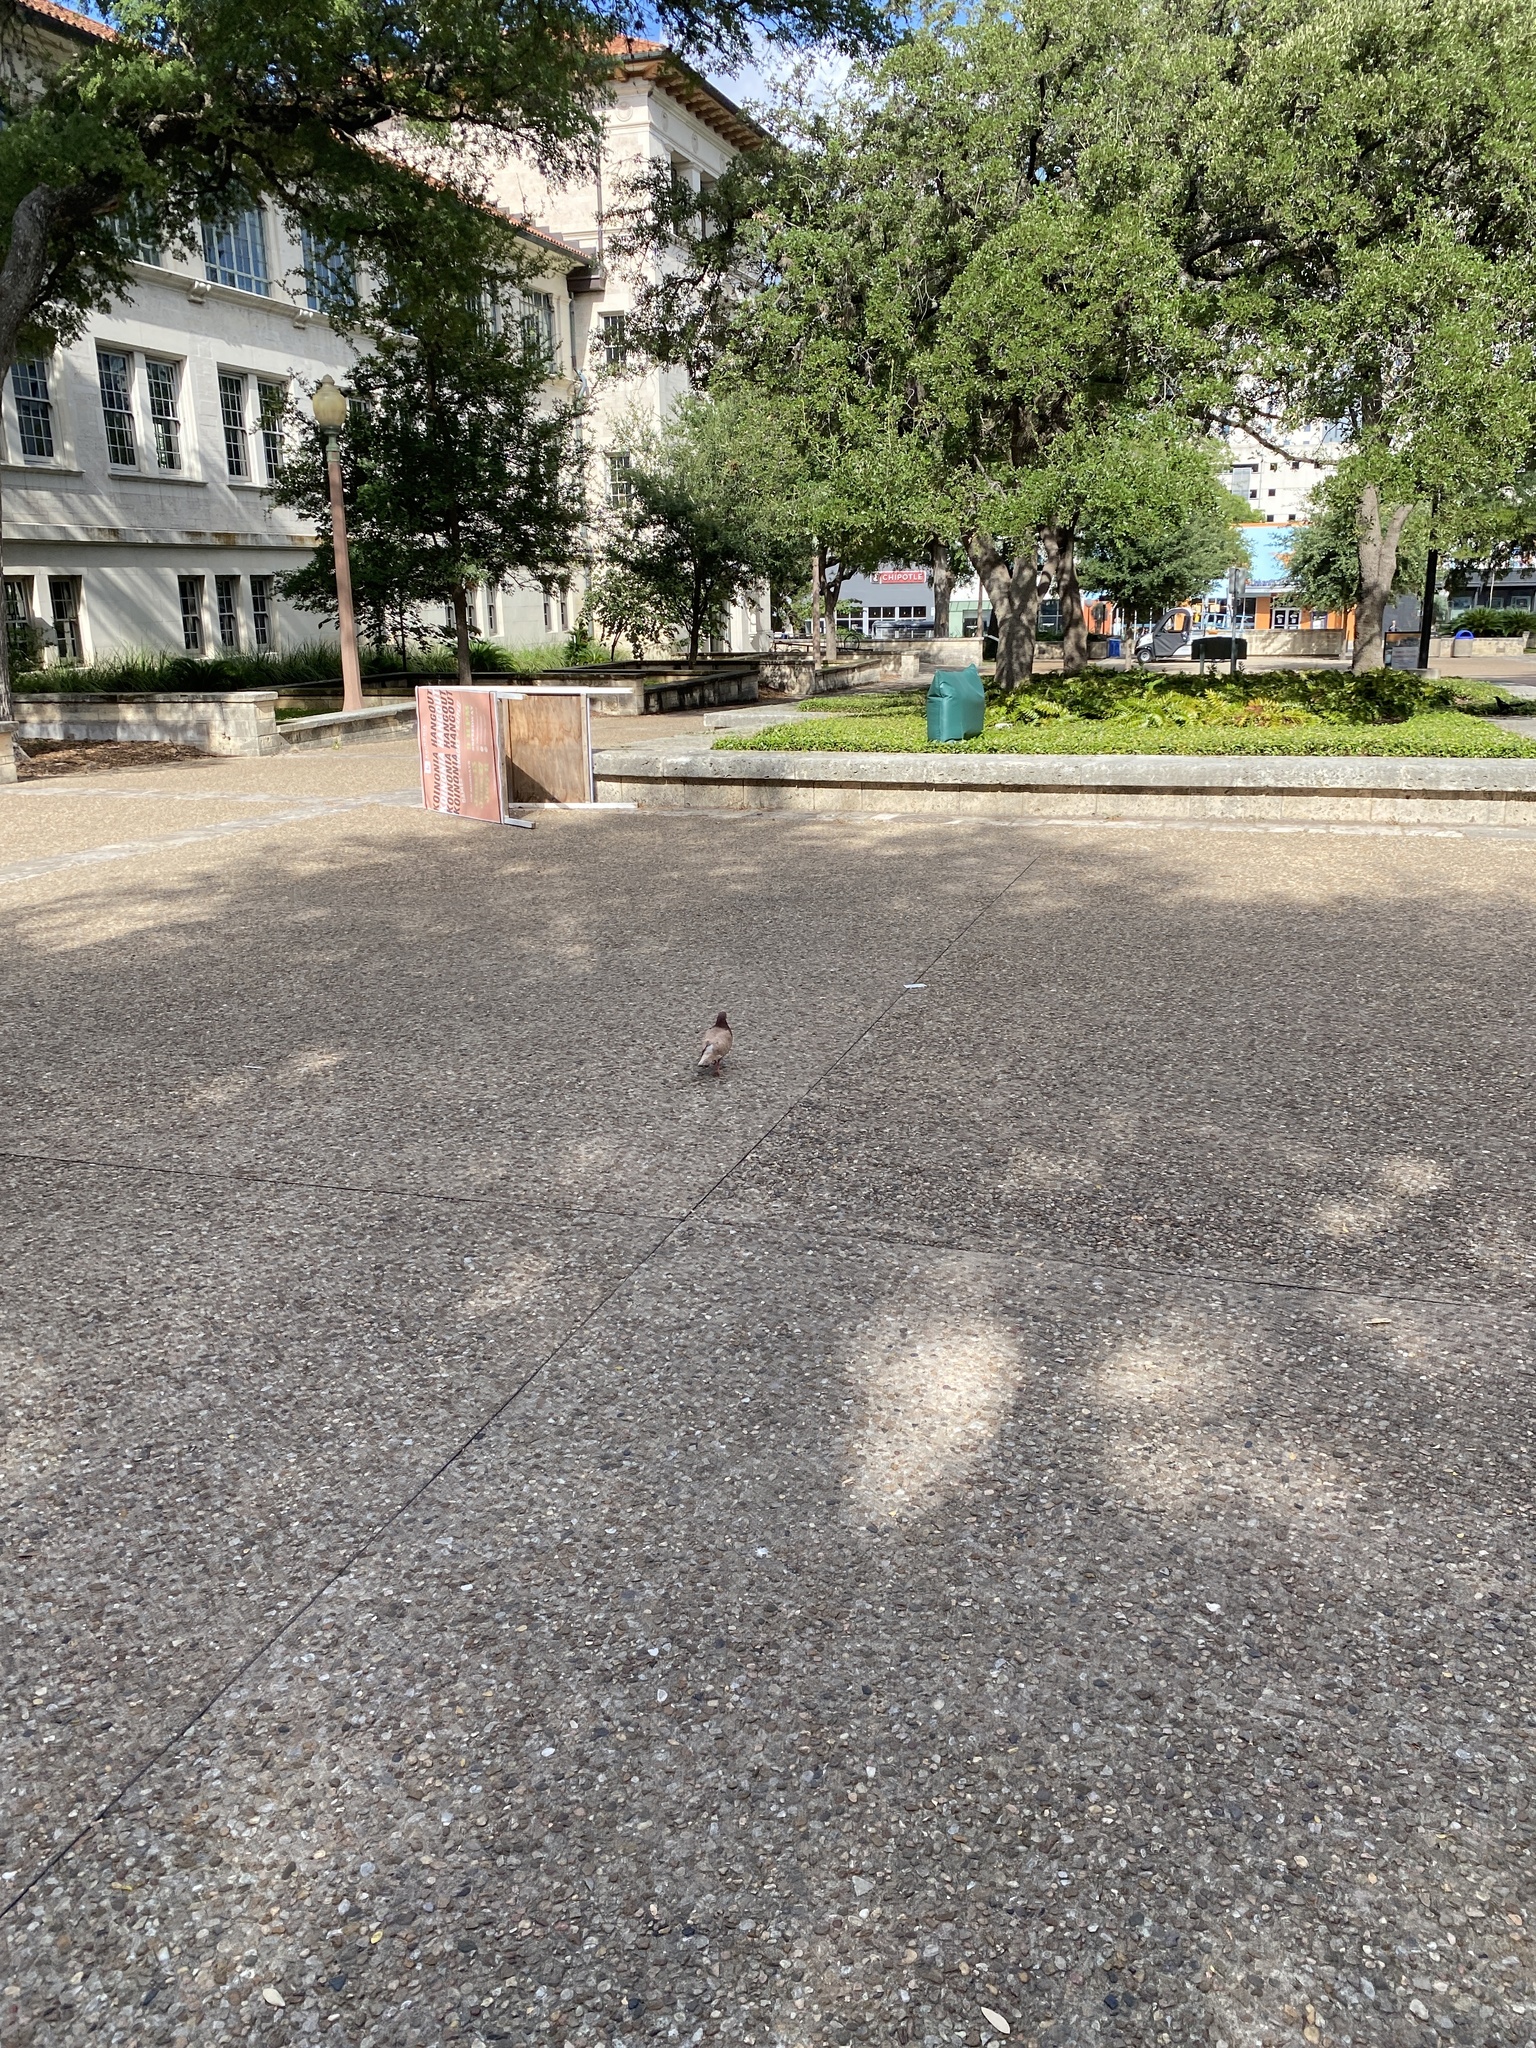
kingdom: Animalia
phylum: Chordata
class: Aves
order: Columbiformes
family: Columbidae
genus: Columba
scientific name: Columba livia
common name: Rock pigeon
